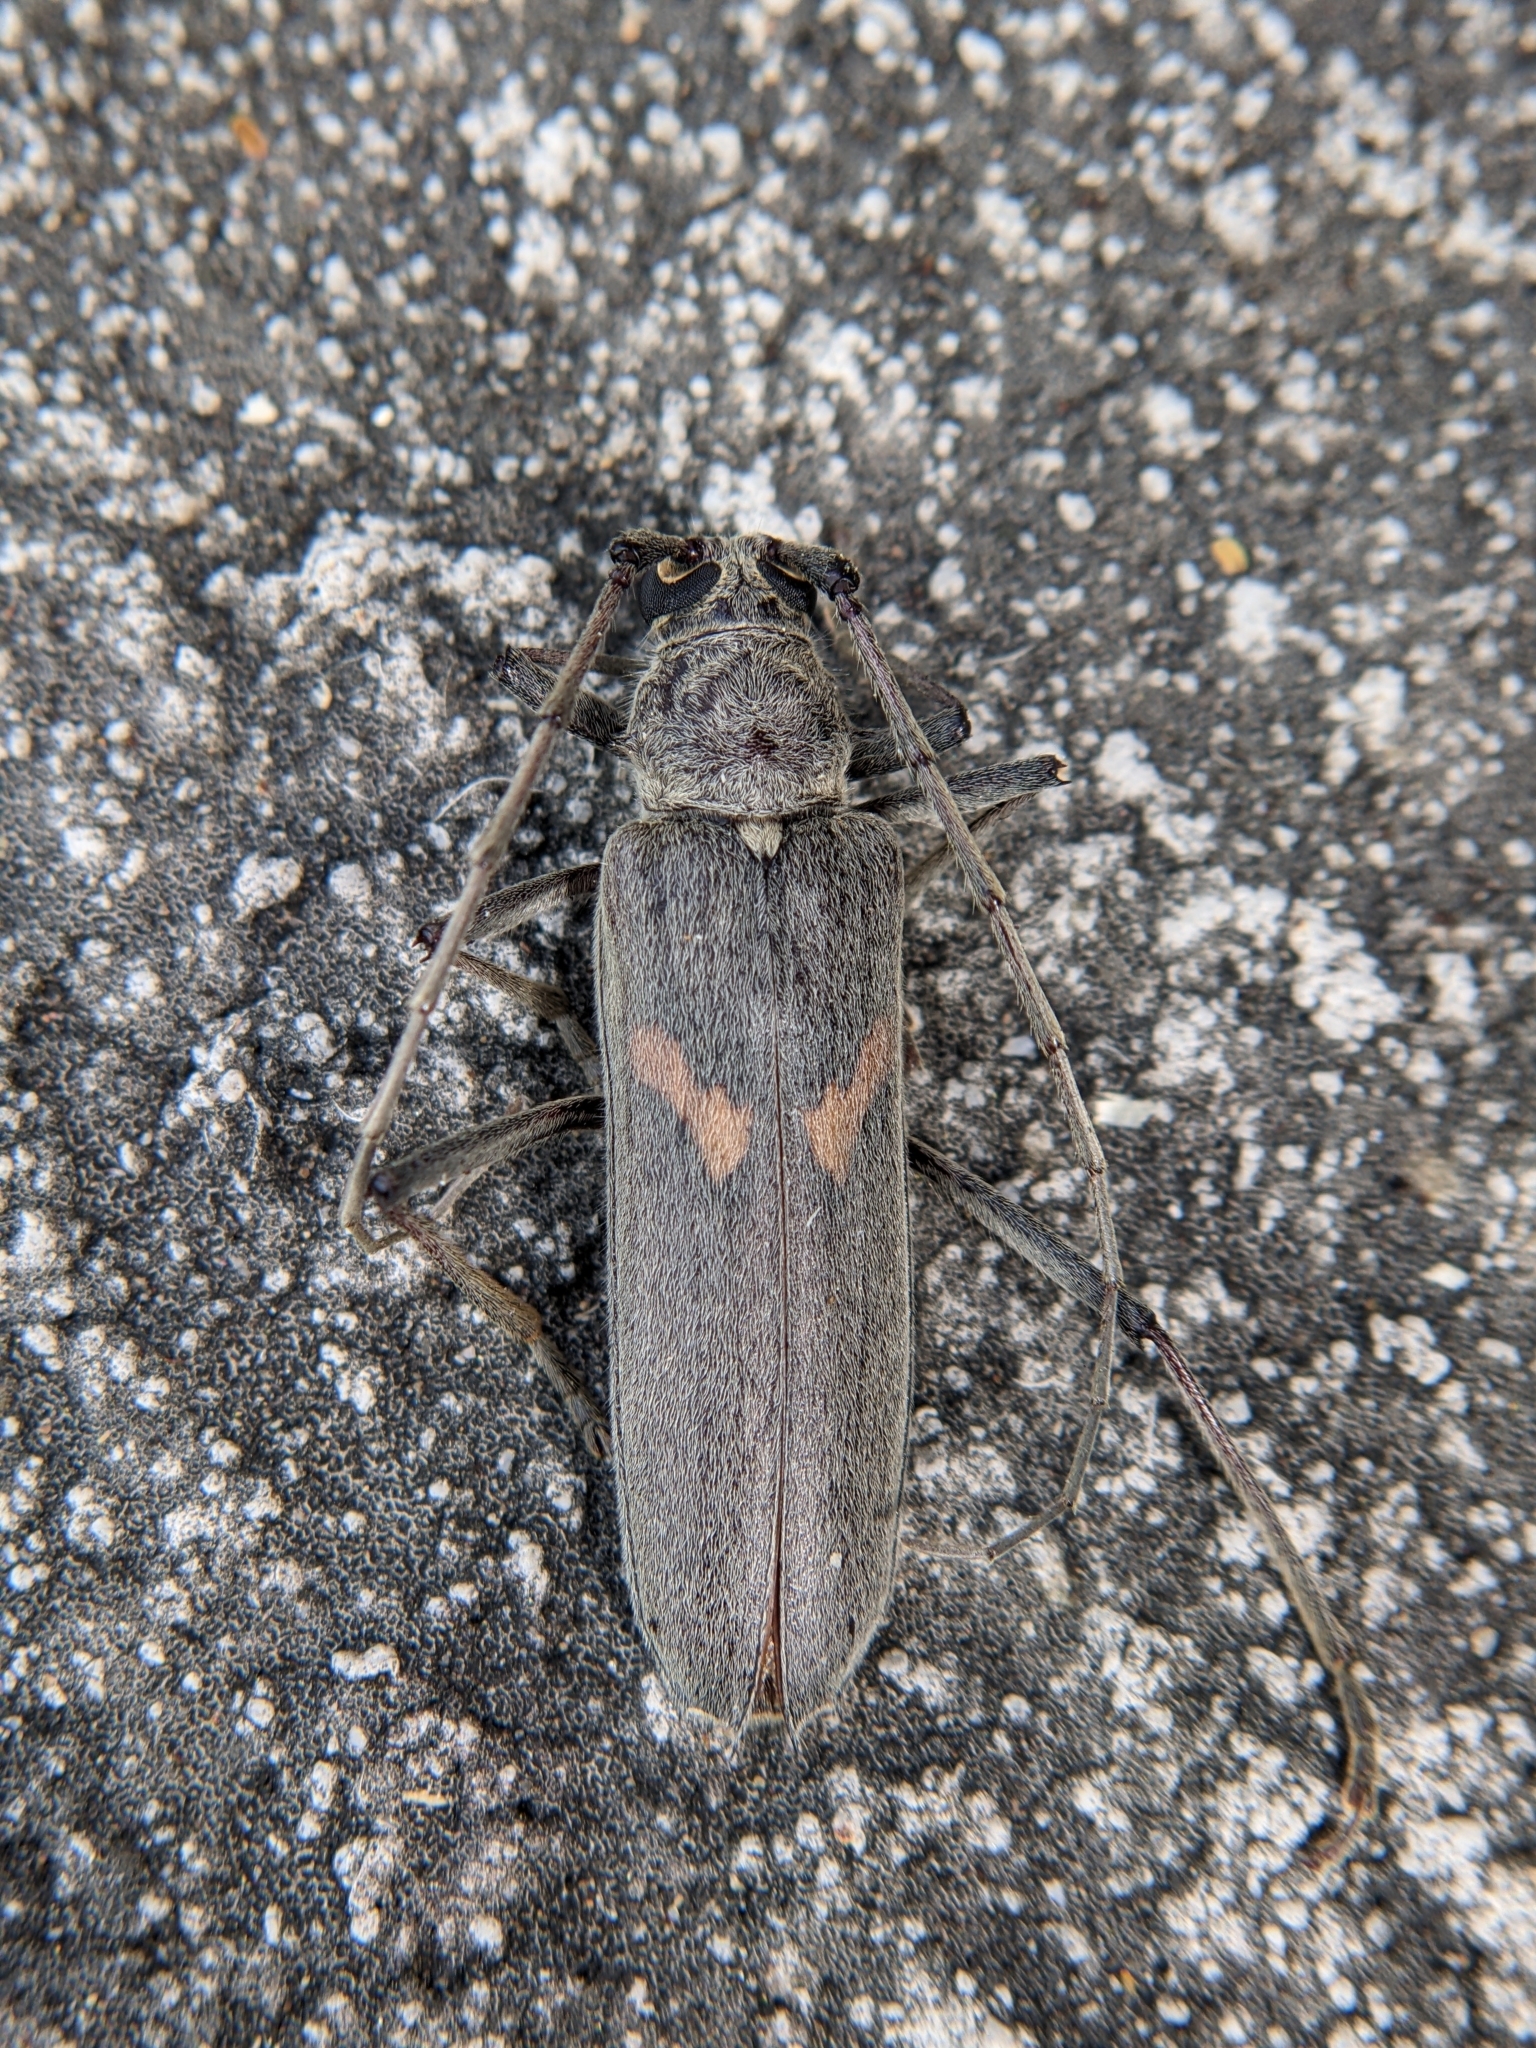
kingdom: Animalia
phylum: Arthropoda
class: Insecta
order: Coleoptera
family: Cerambycidae
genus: Knulliana
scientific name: Knulliana cincta
